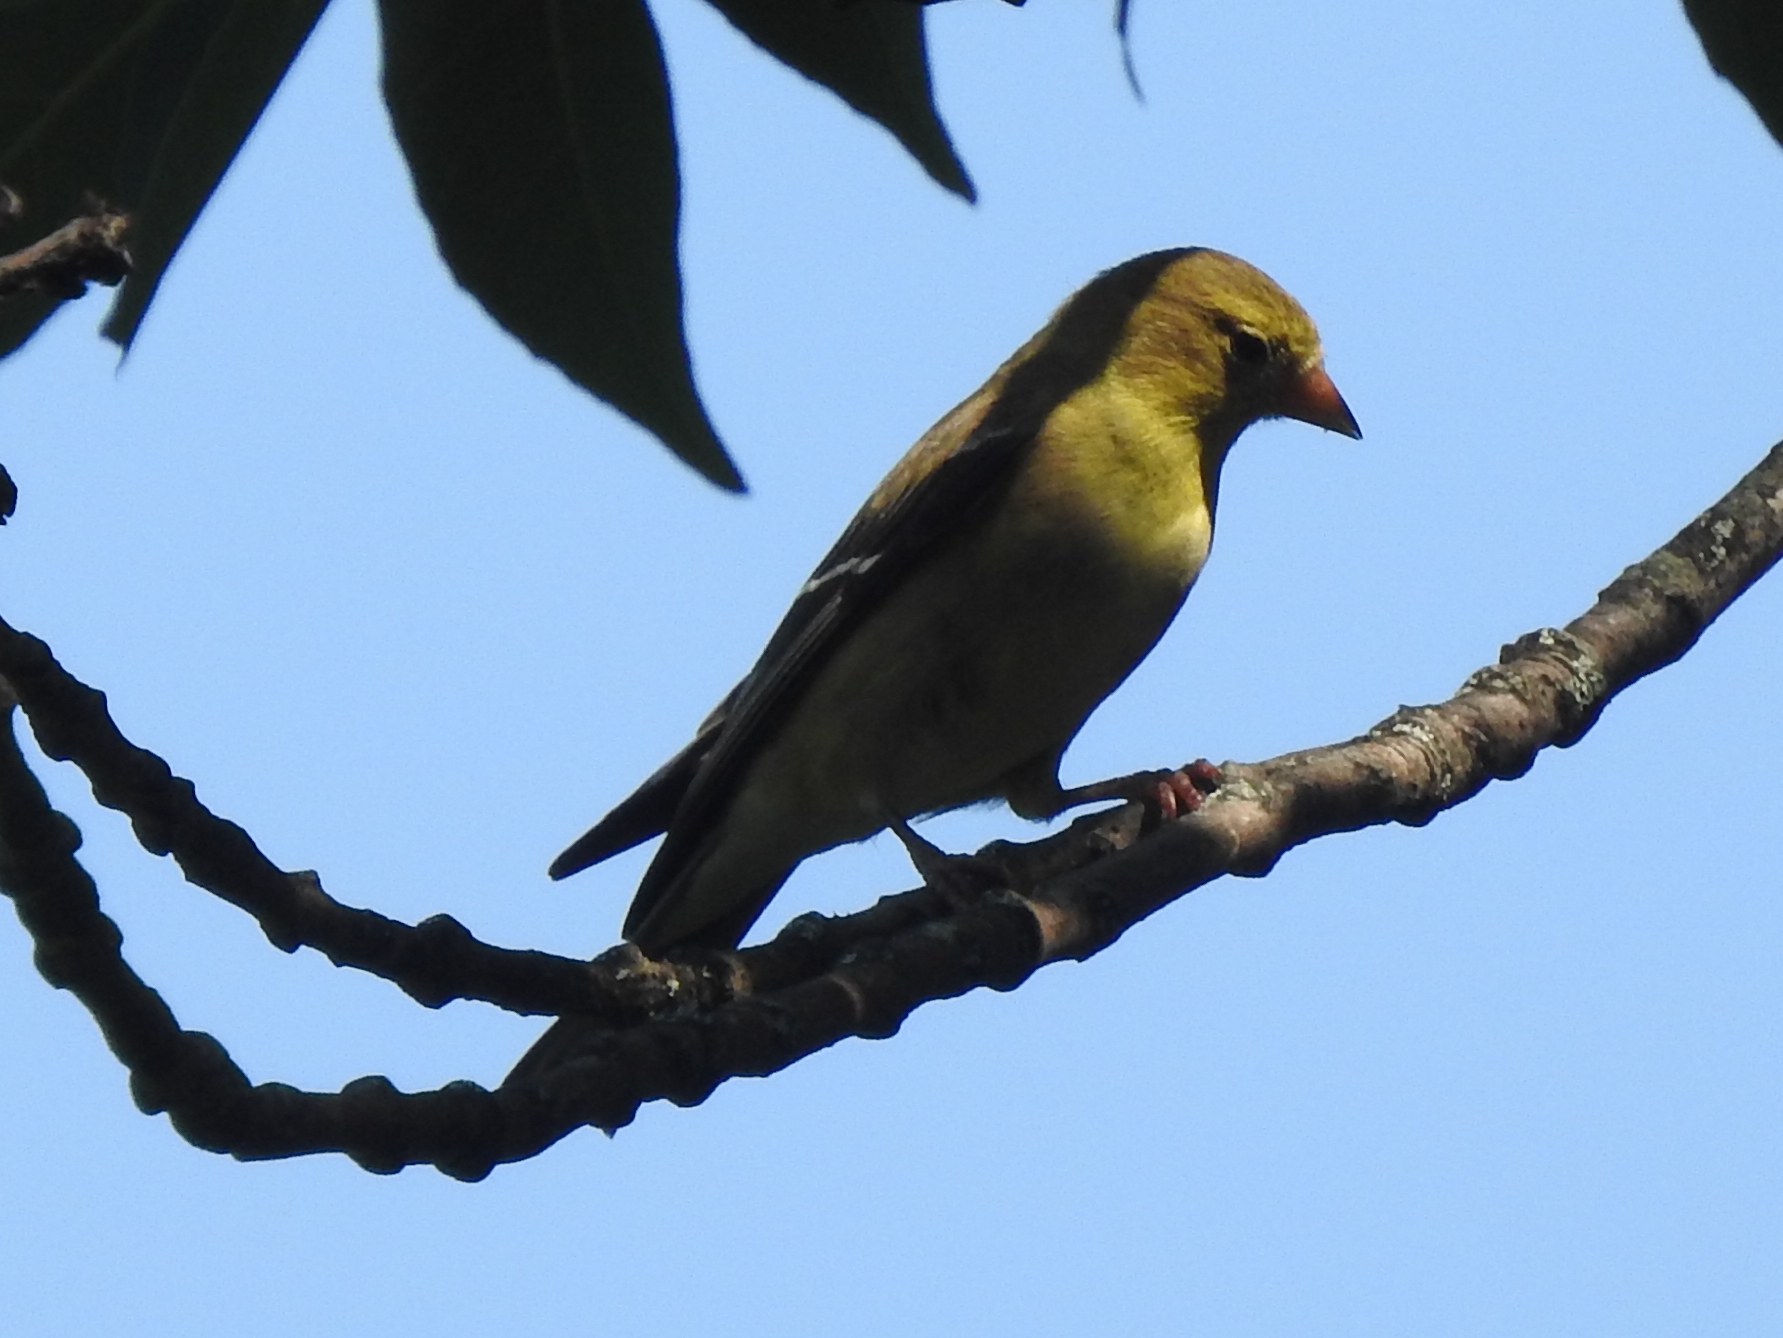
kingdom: Animalia
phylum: Chordata
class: Aves
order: Passeriformes
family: Fringillidae
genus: Spinus
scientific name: Spinus tristis
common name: American goldfinch
